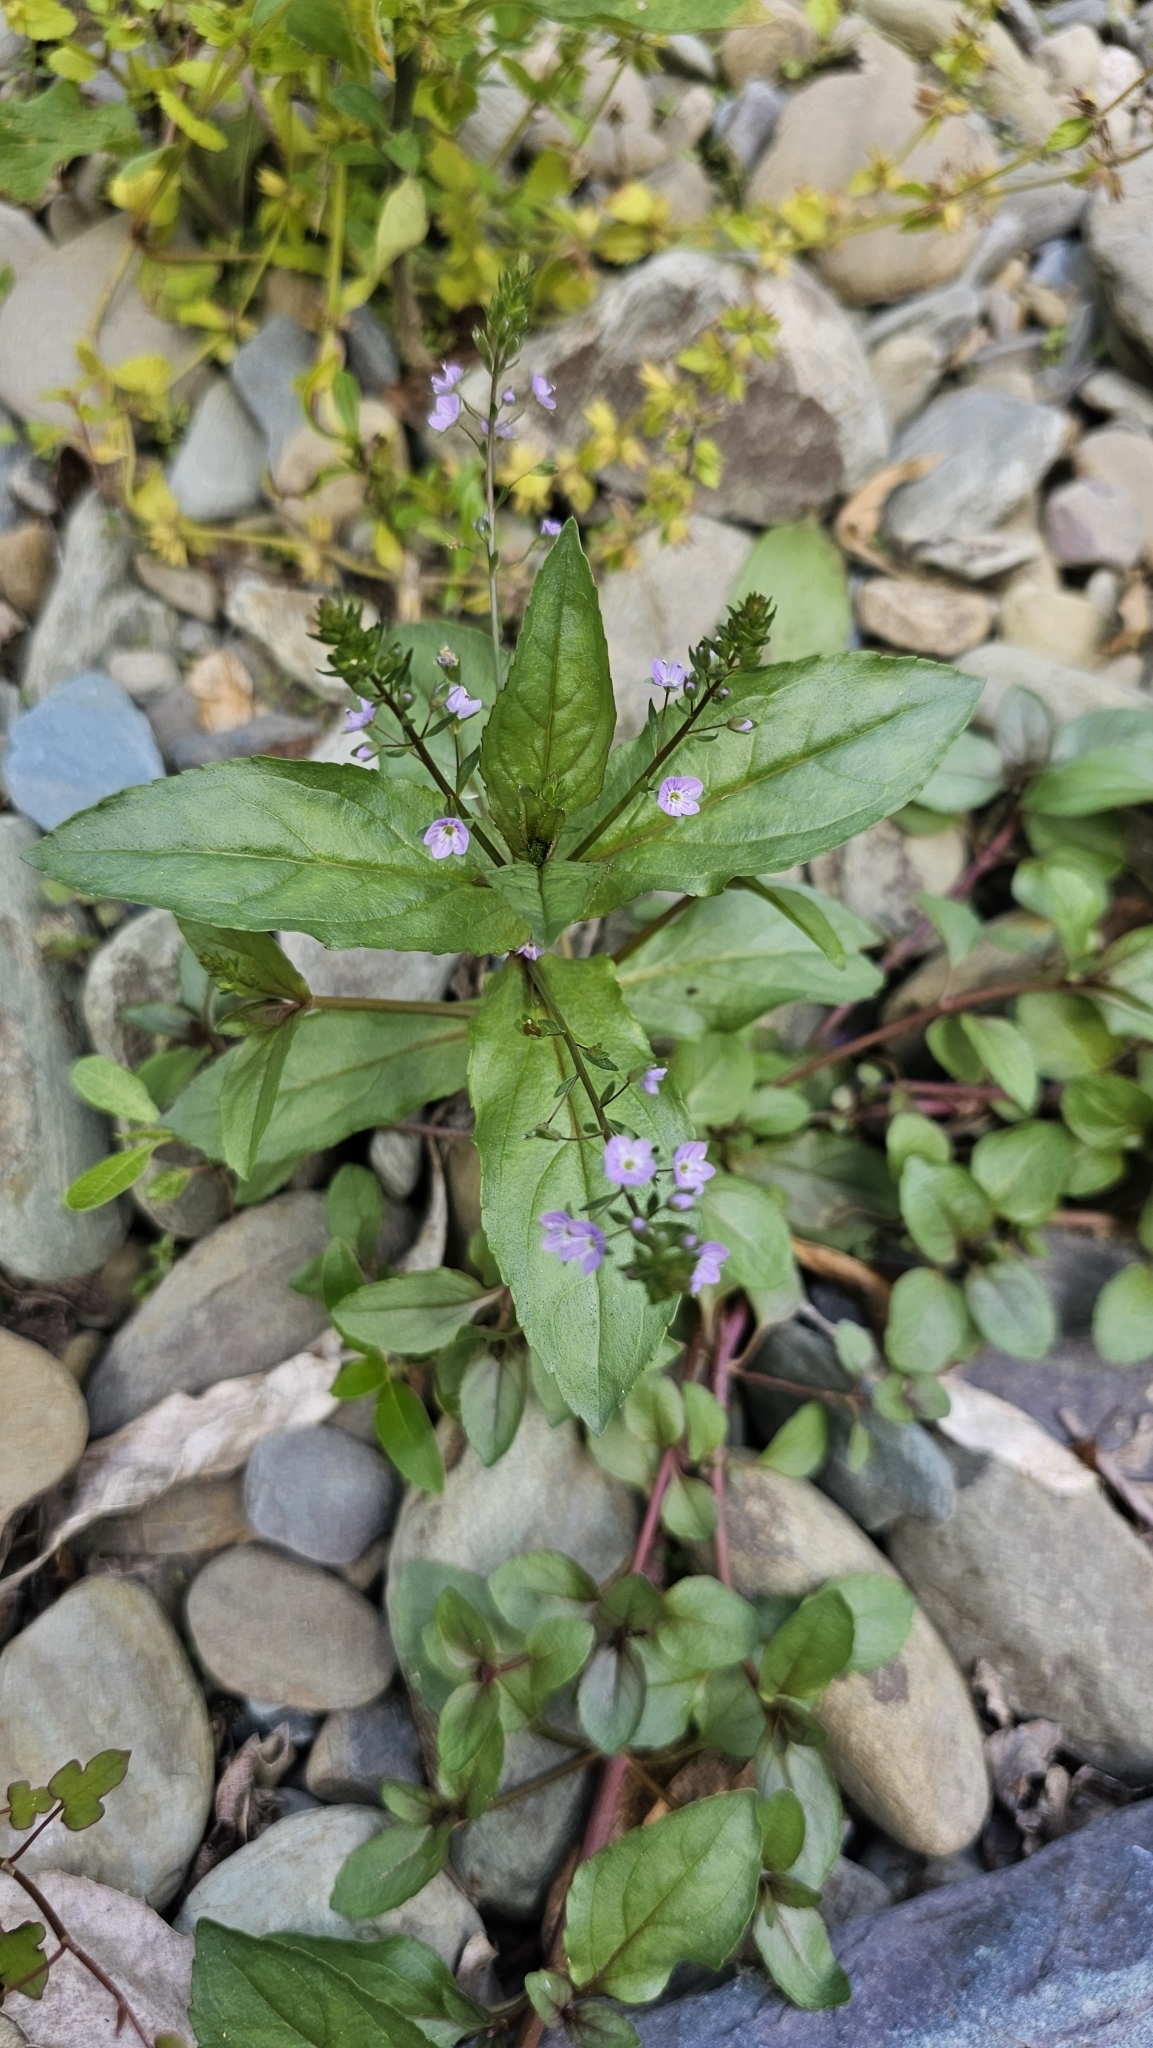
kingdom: Plantae
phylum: Tracheophyta
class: Magnoliopsida
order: Lamiales
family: Plantaginaceae
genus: Veronica
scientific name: Veronica anagallis-aquatica
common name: Water speedwell
